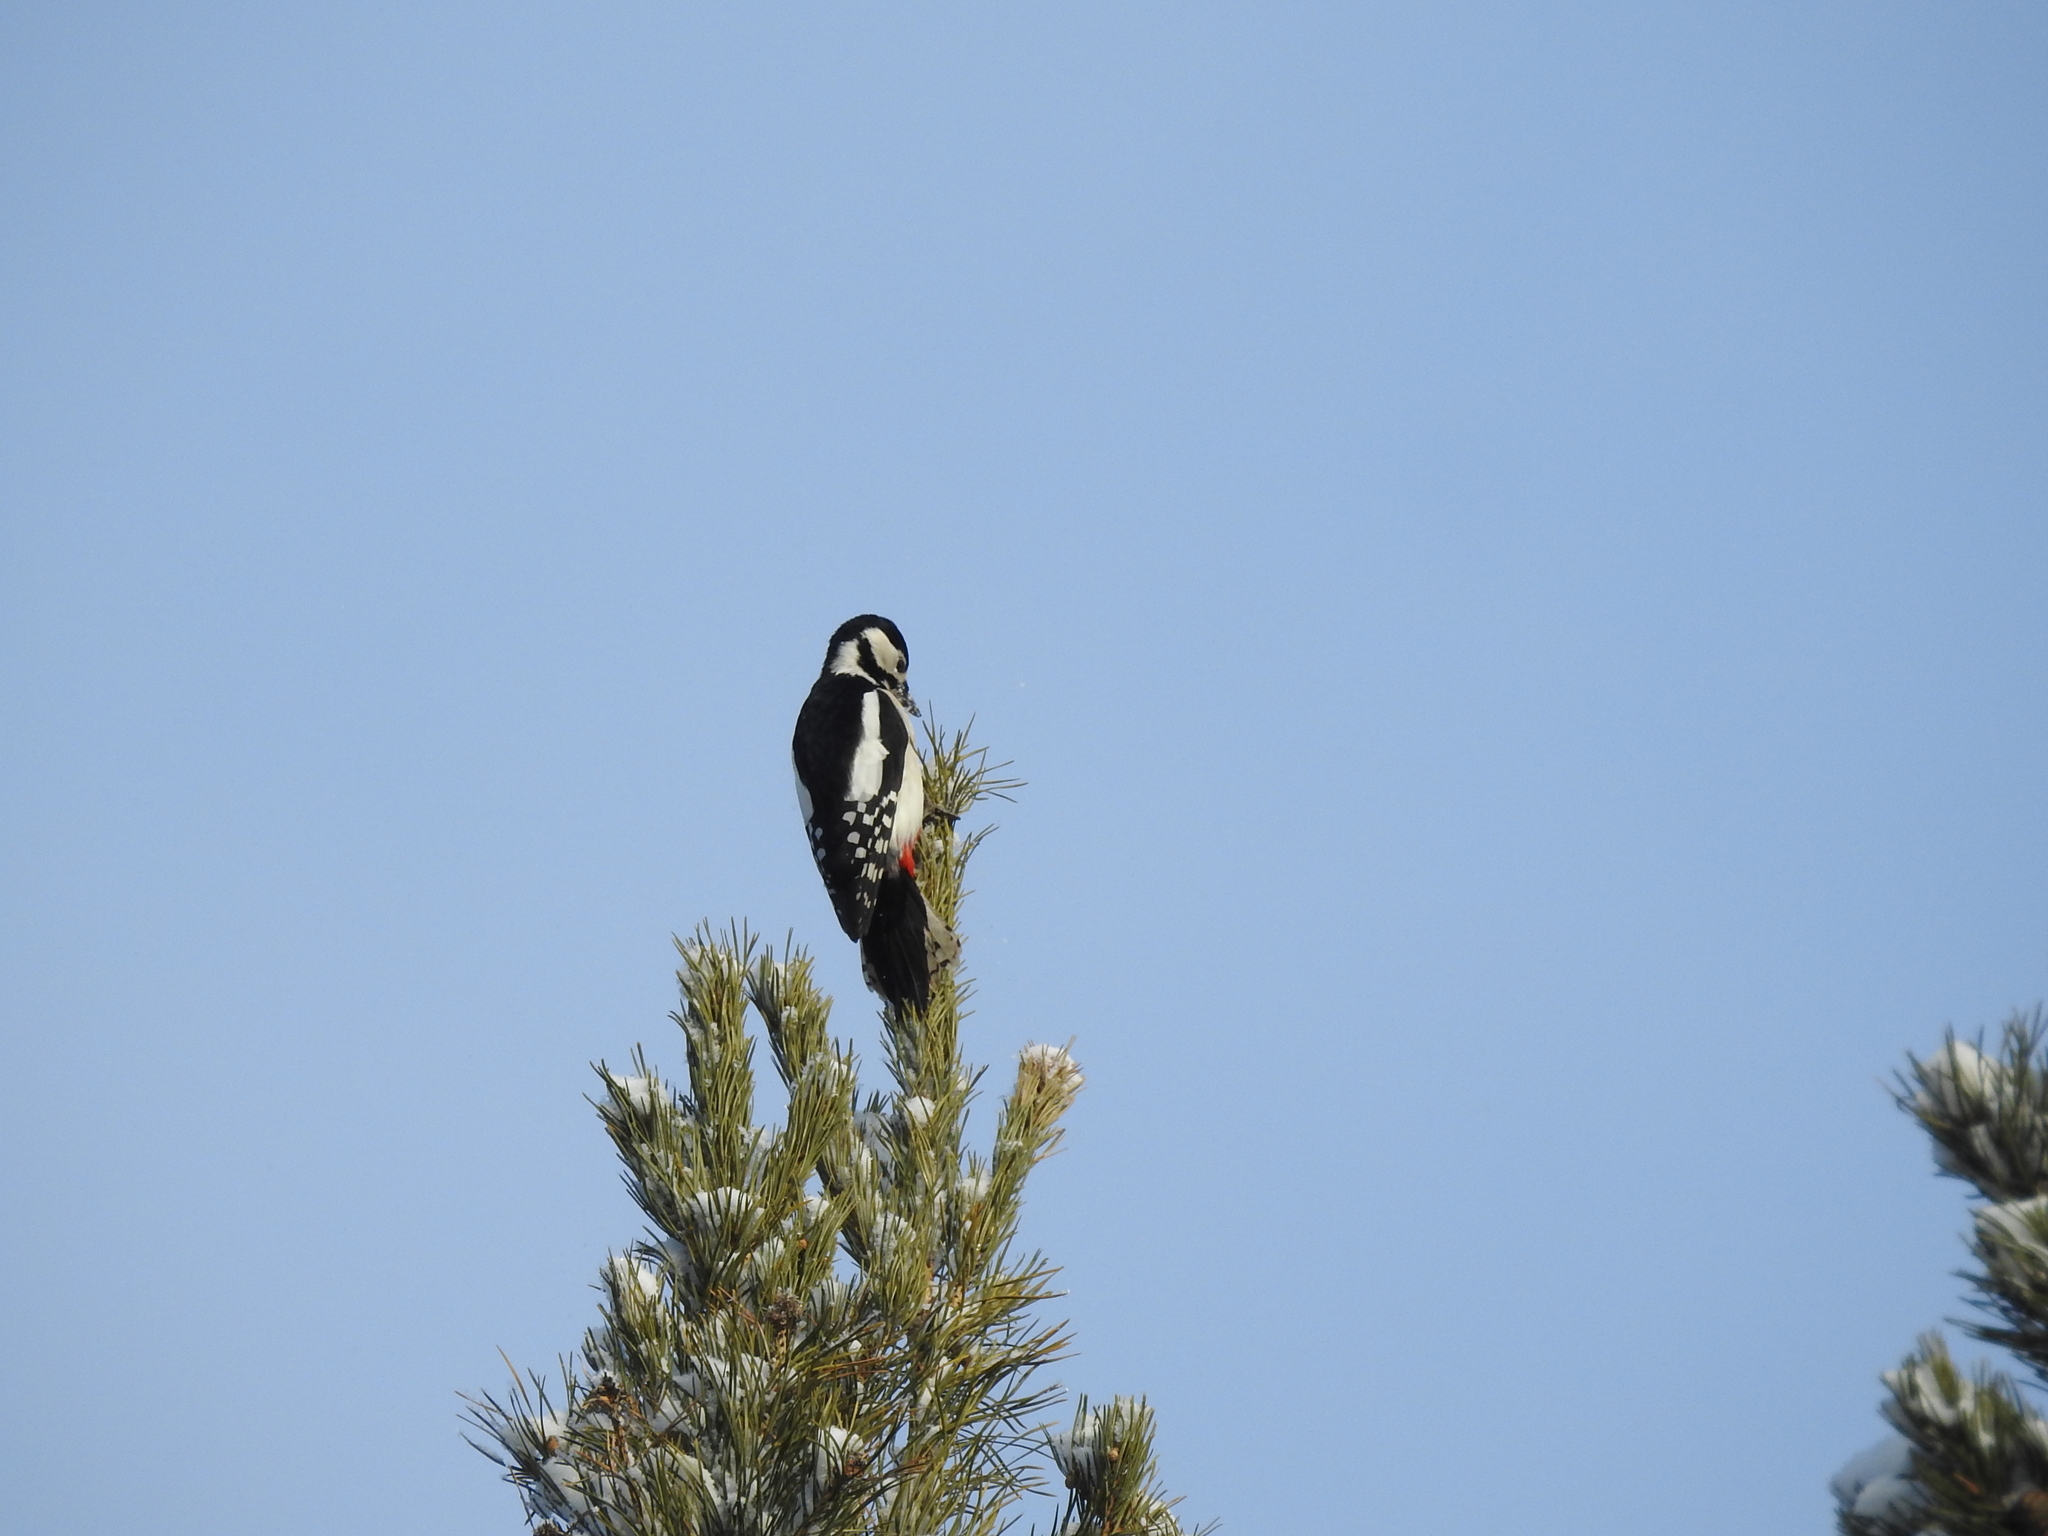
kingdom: Animalia
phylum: Chordata
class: Aves
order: Piciformes
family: Picidae
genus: Dendrocopos
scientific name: Dendrocopos major
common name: Great spotted woodpecker
